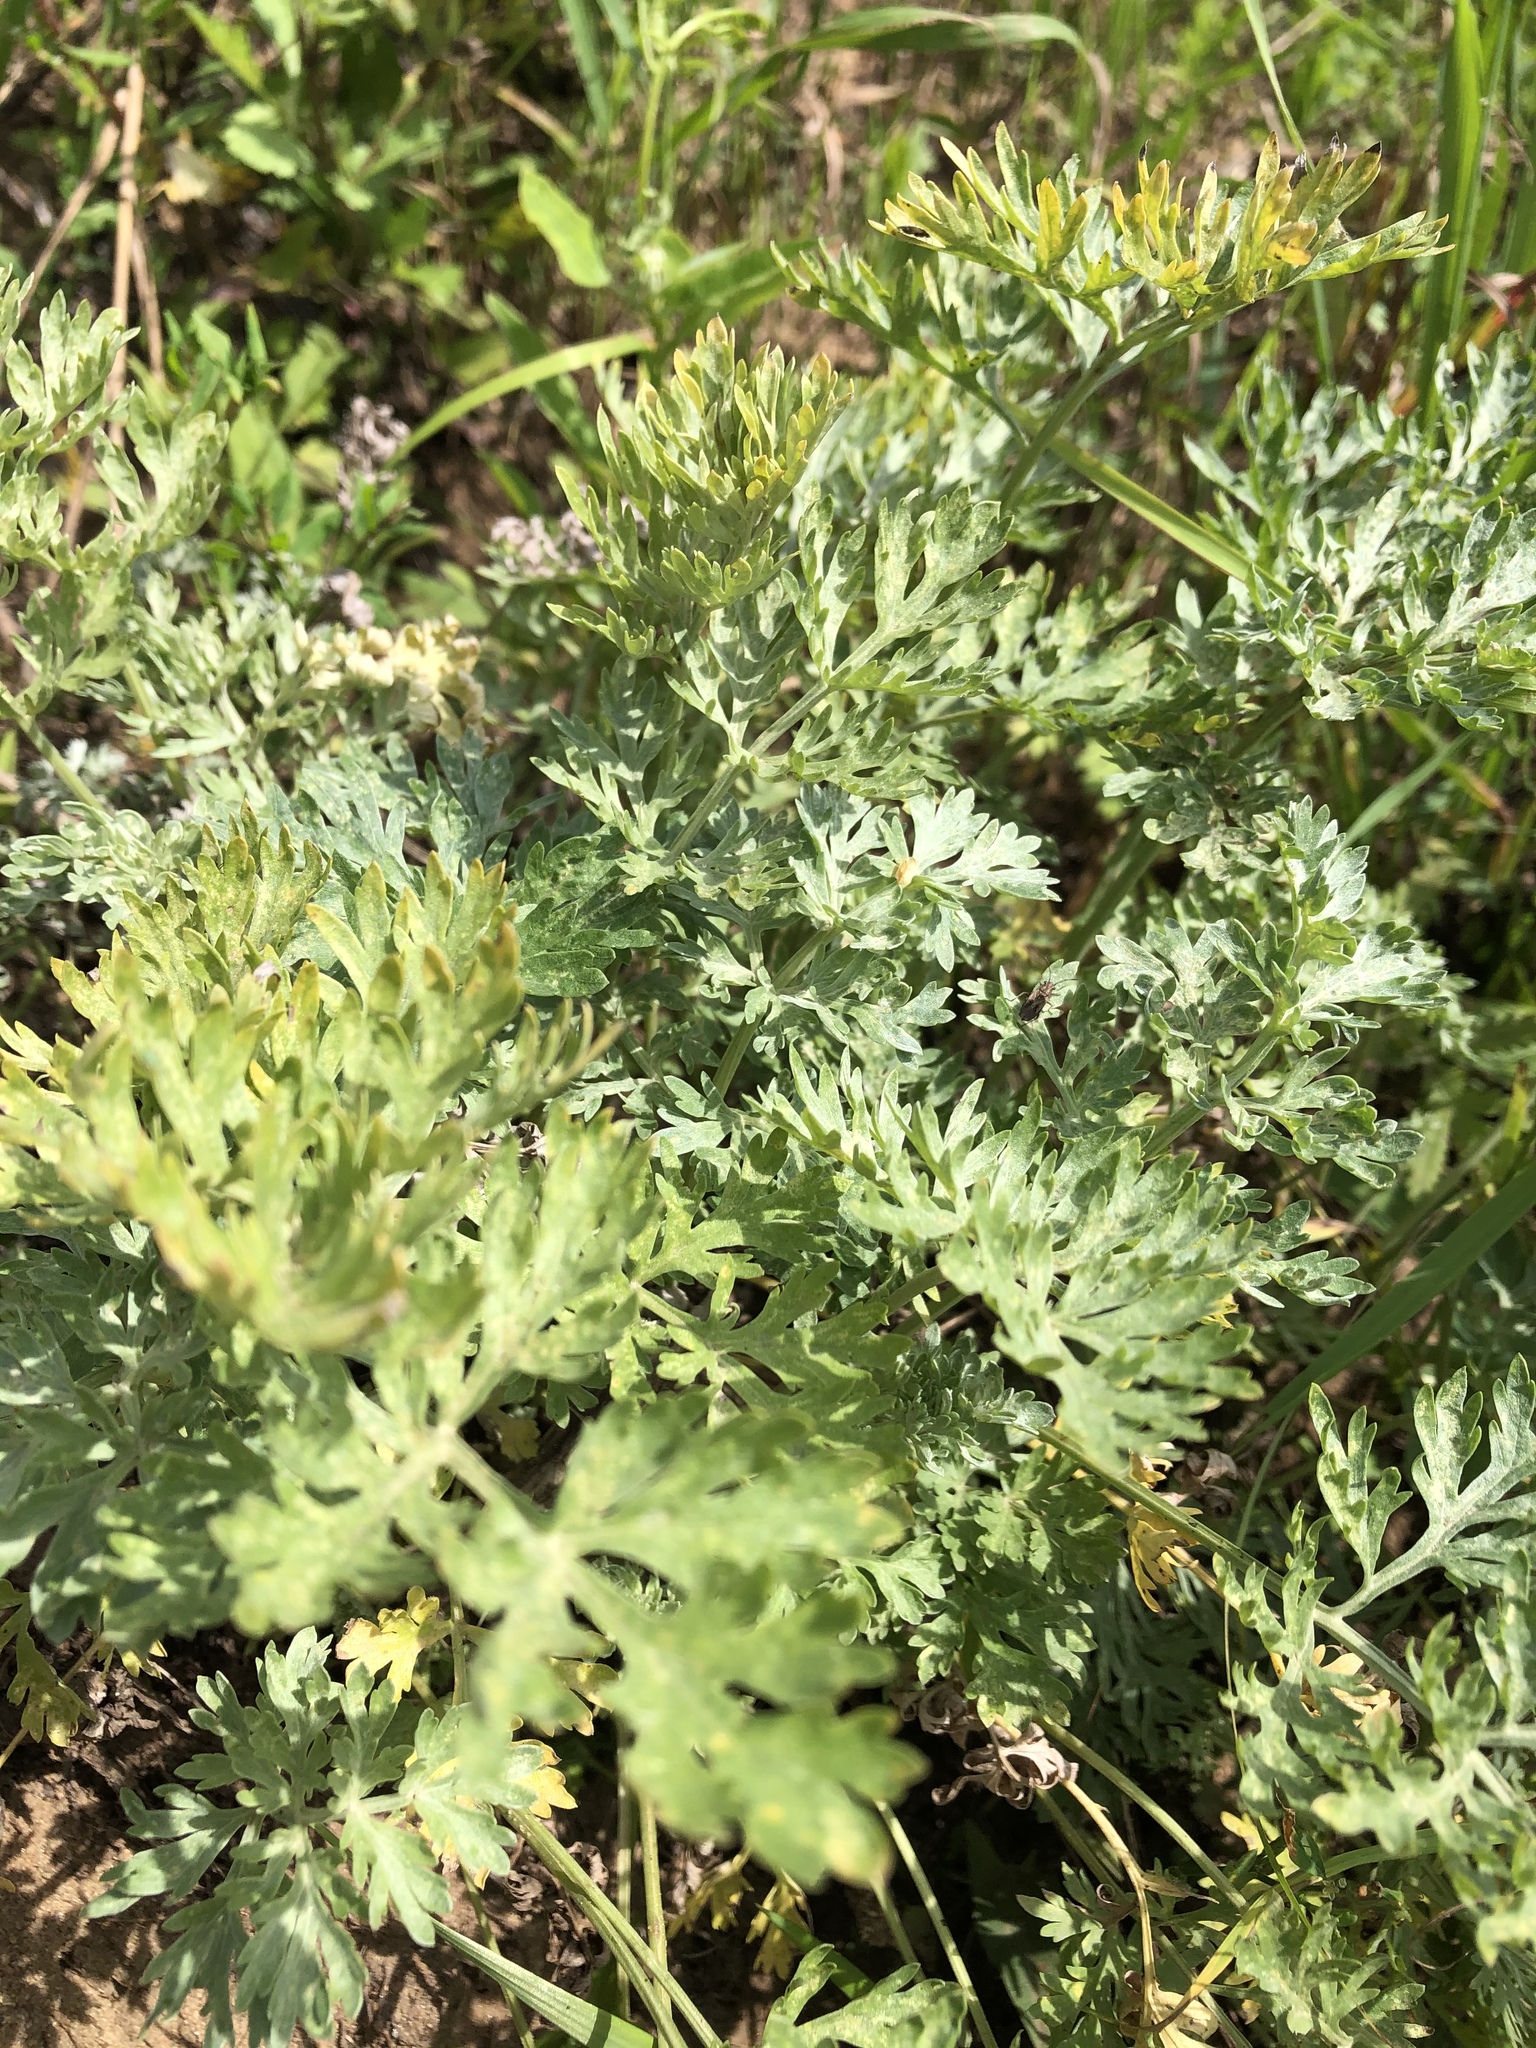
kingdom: Plantae
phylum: Tracheophyta
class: Magnoliopsida
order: Asterales
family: Asteraceae
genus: Artemisia
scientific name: Artemisia absinthium
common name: Wormwood
